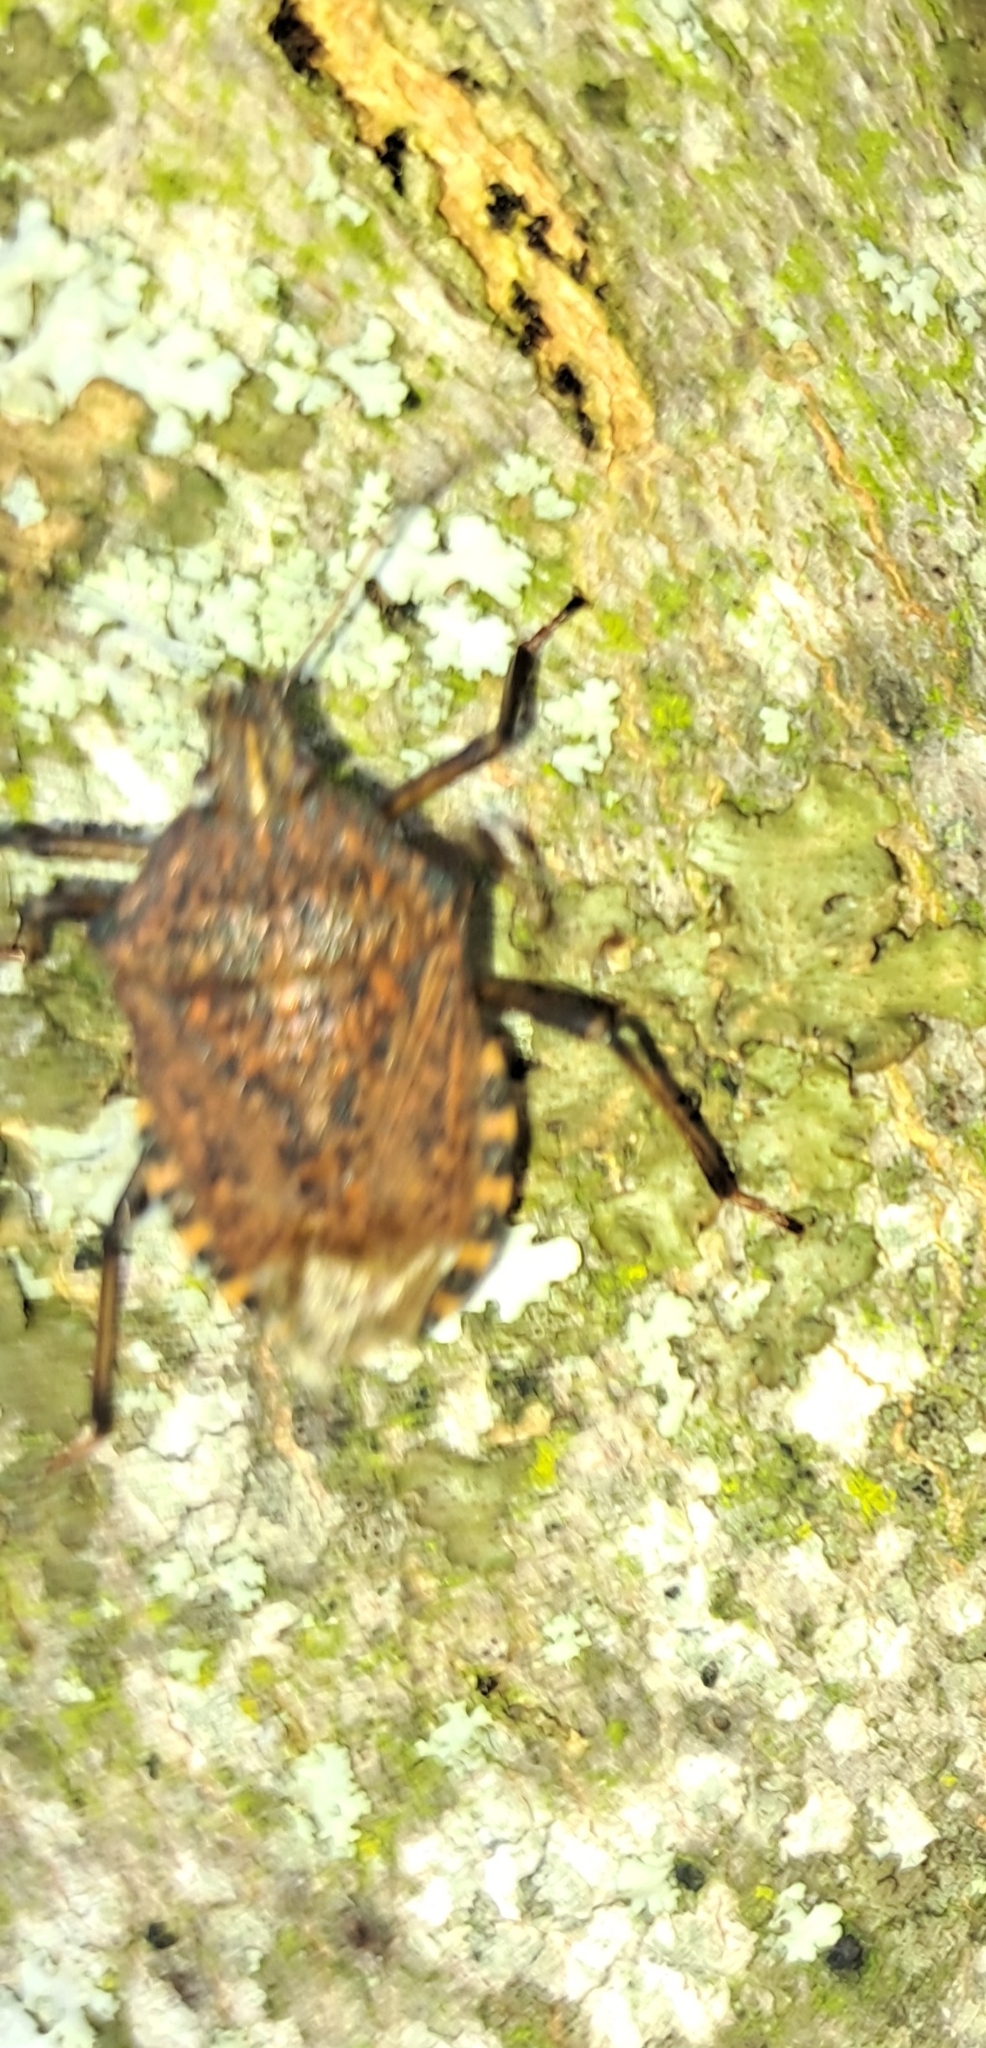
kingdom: Animalia
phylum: Arthropoda
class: Insecta
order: Hemiptera
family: Pentatomidae
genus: Apodiphus
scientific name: Apodiphus amygdali
